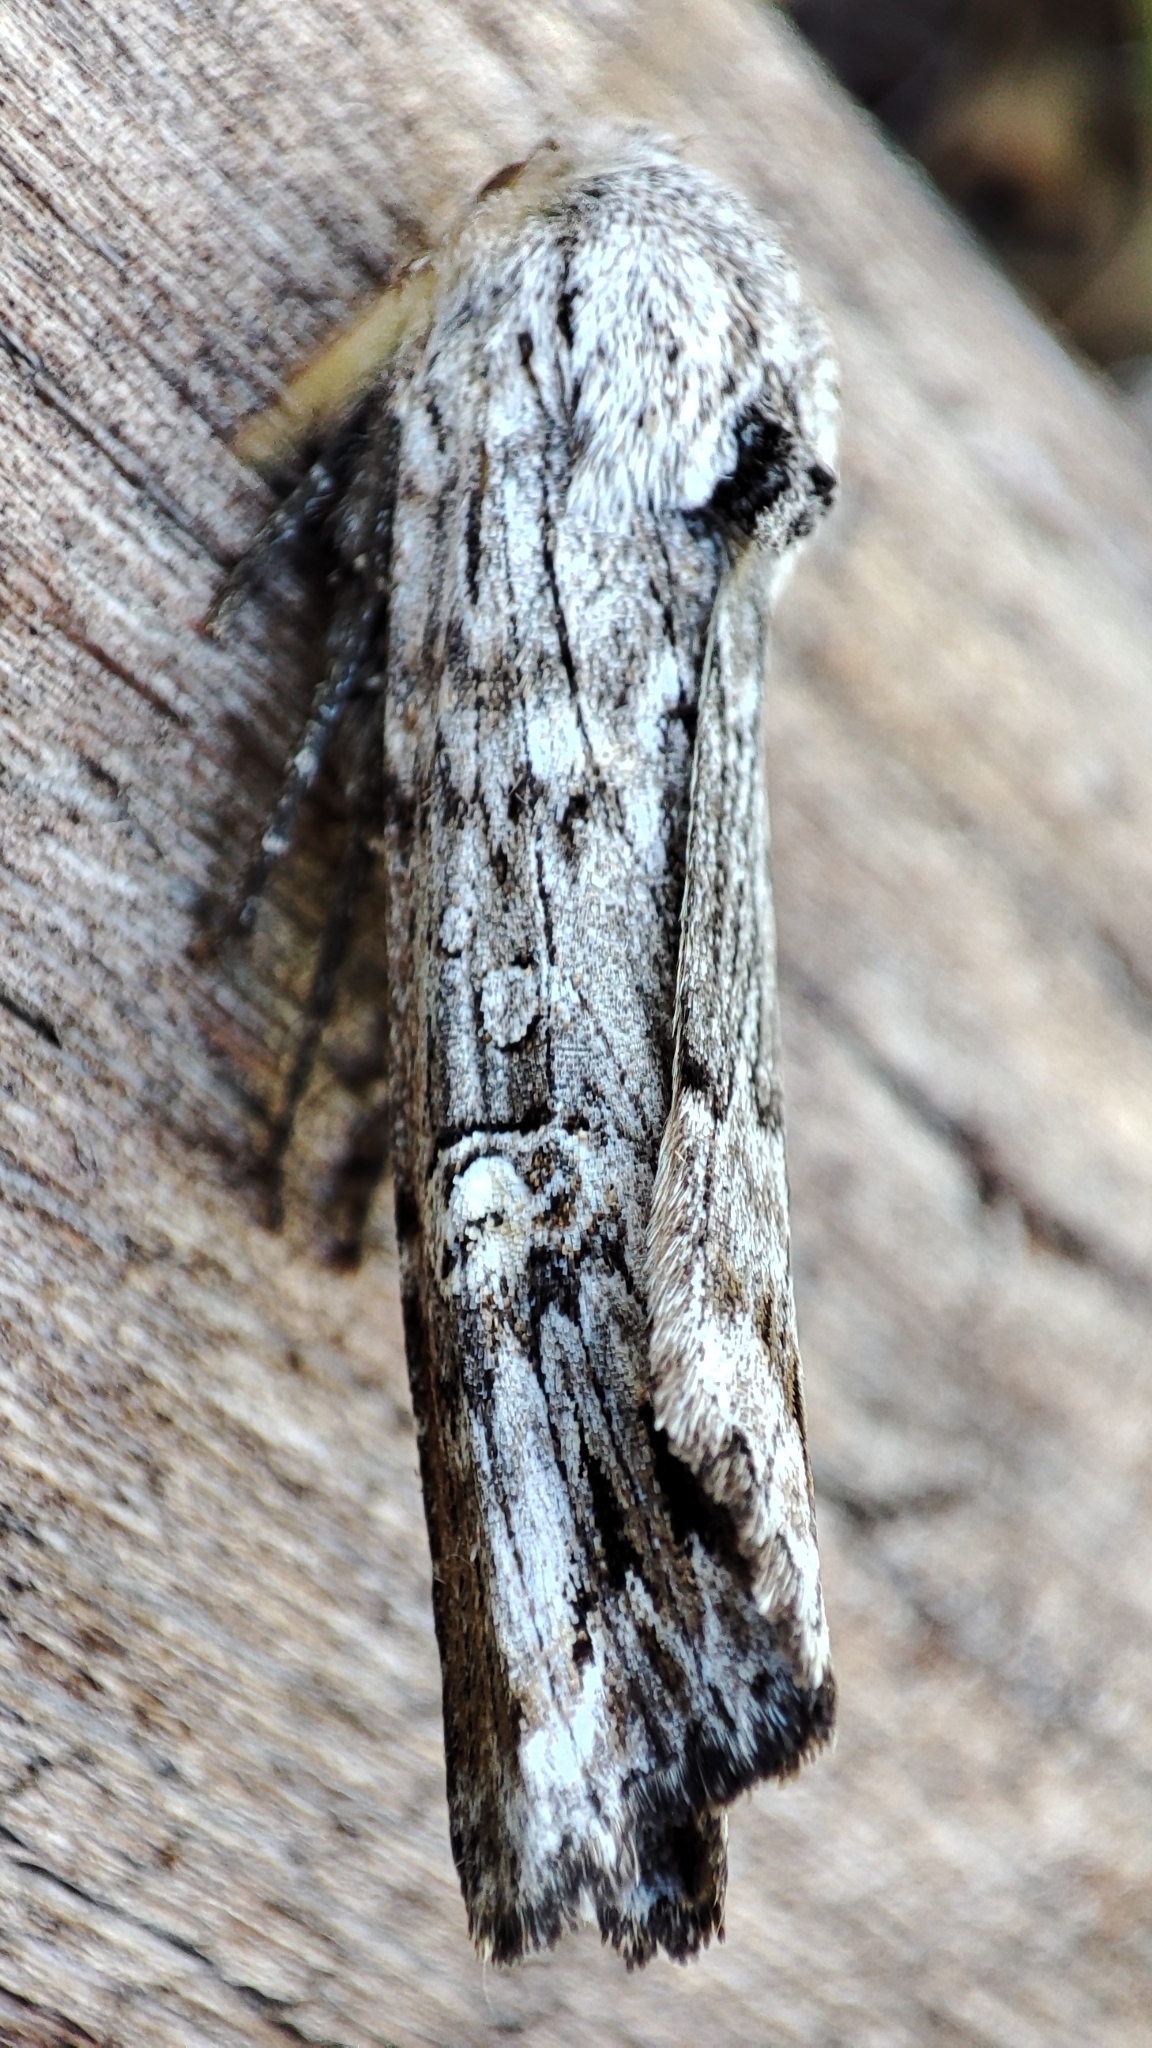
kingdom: Animalia
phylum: Arthropoda
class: Insecta
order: Lepidoptera
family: Noctuidae
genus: Xylena
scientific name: Xylena solidaginis
